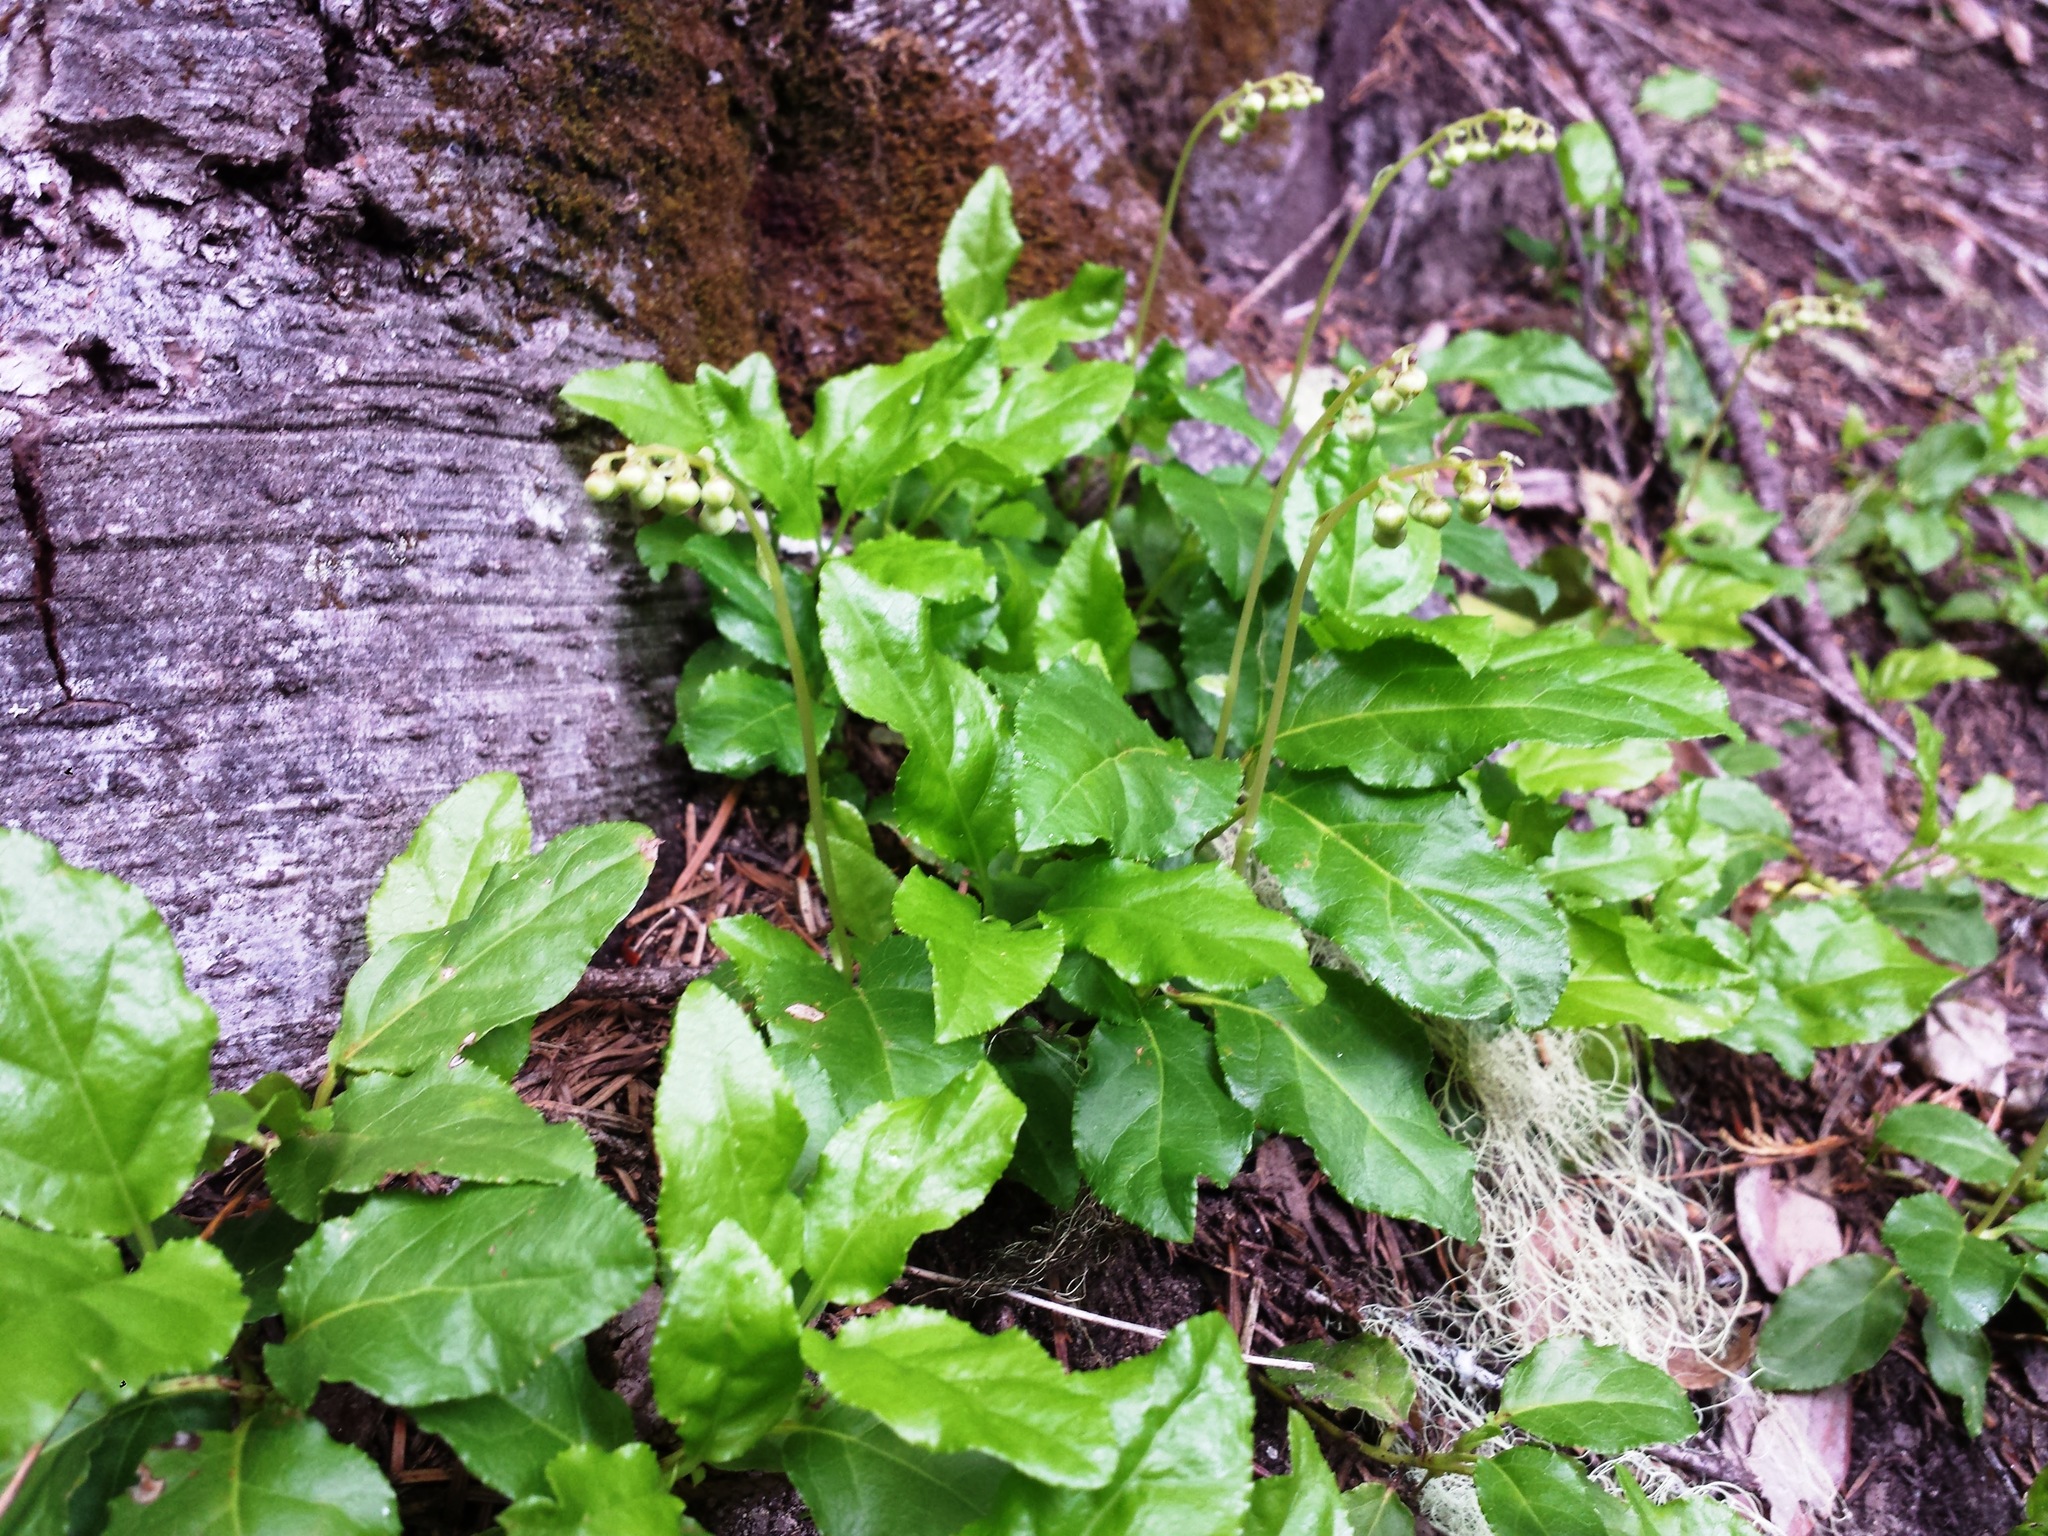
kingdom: Plantae
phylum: Tracheophyta
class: Magnoliopsida
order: Ericales
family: Ericaceae
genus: Orthilia
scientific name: Orthilia secunda
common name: One-sided orthilia
